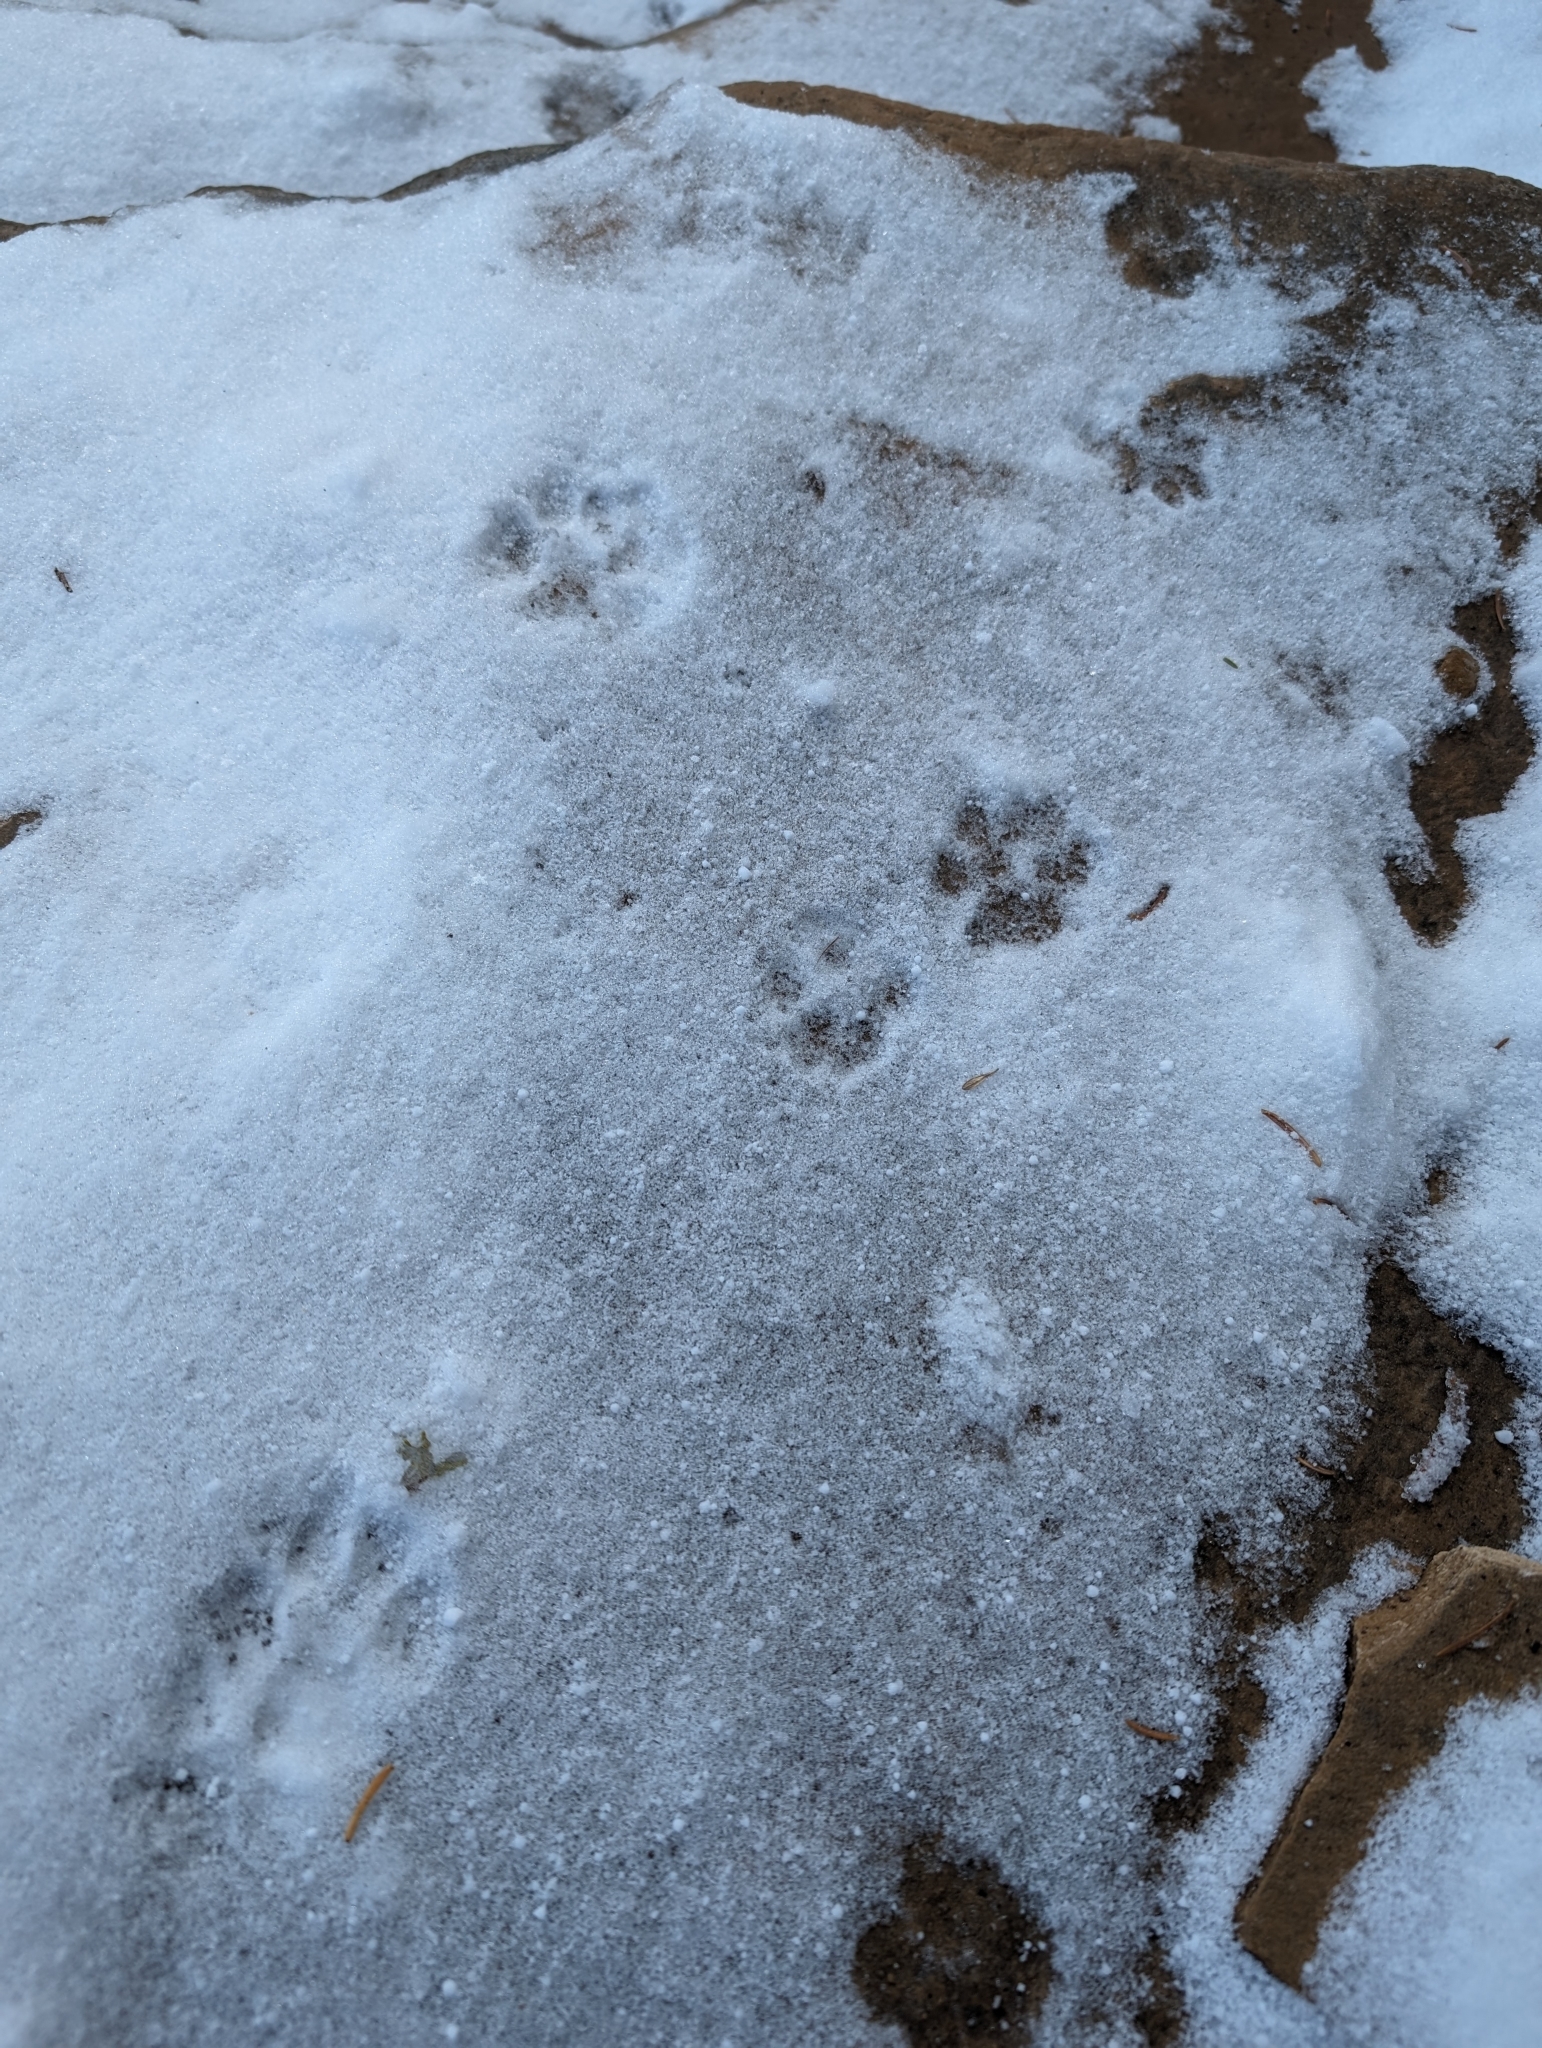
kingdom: Animalia
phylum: Chordata
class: Mammalia
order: Carnivora
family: Felidae
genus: Lynx
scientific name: Lynx rufus
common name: Bobcat
